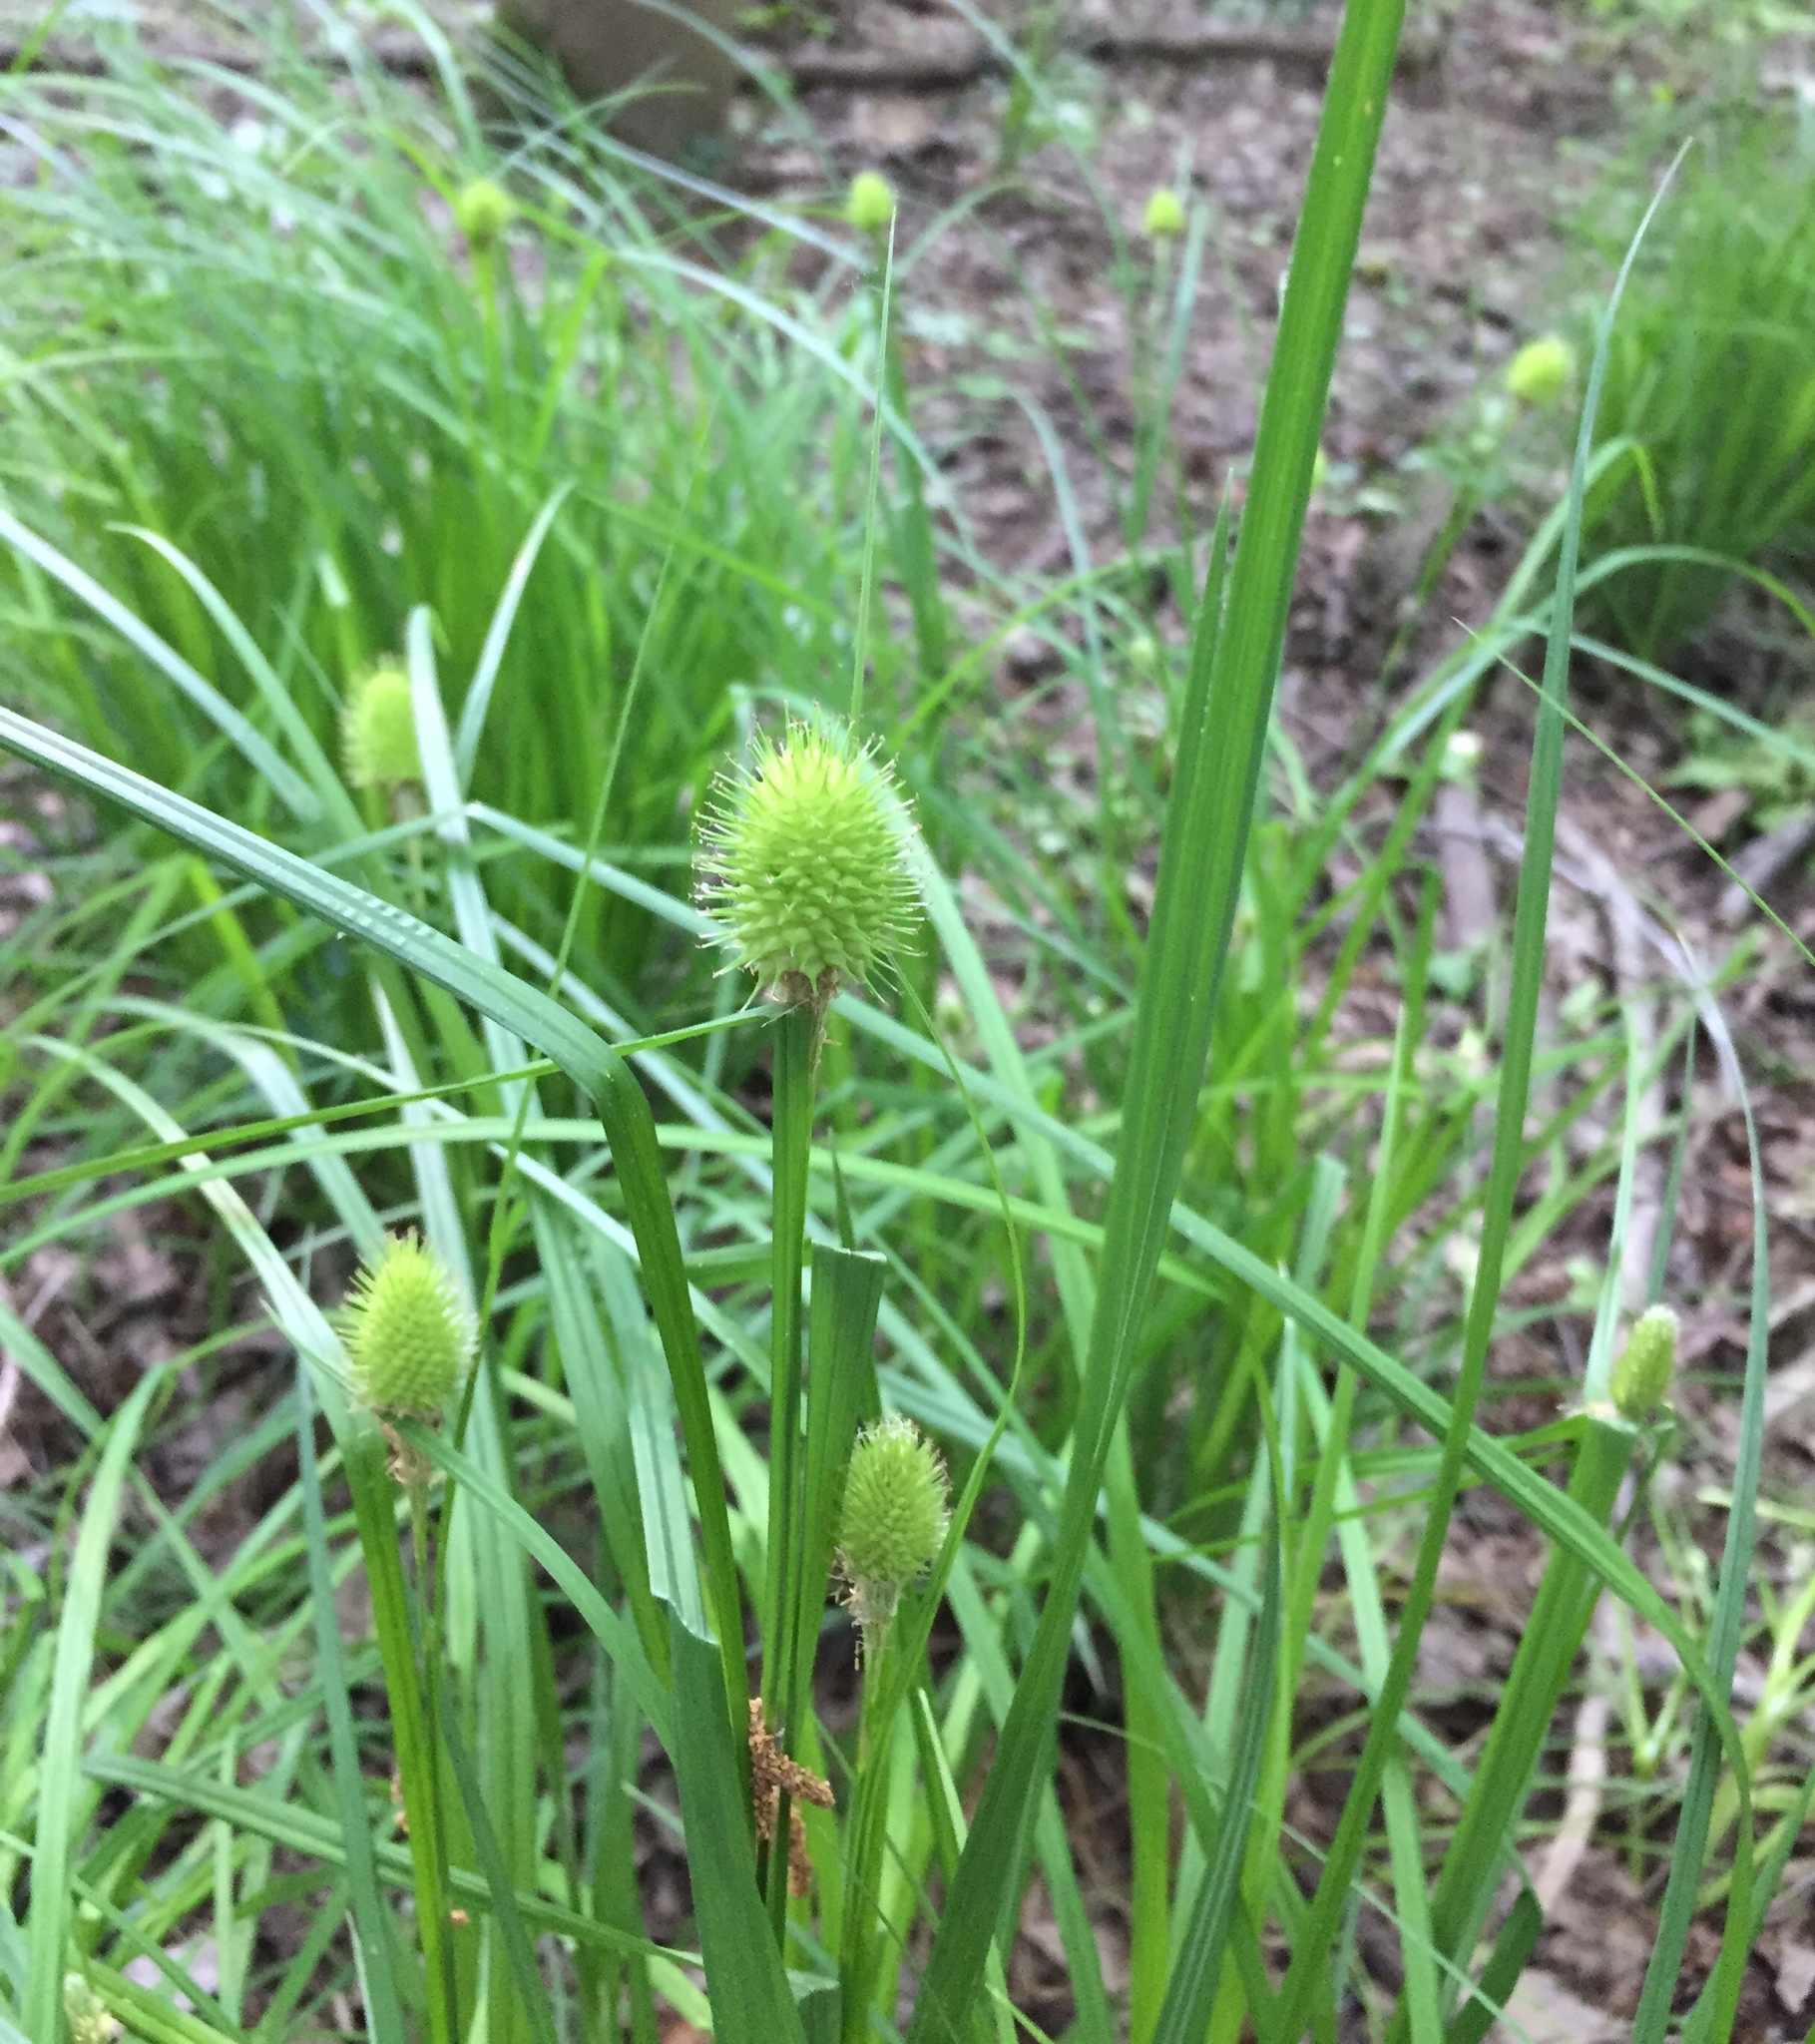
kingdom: Plantae
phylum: Tracheophyta
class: Liliopsida
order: Poales
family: Cyperaceae
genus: Carex
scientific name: Carex squarrosa
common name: Narrow-leaved cattail sedge
